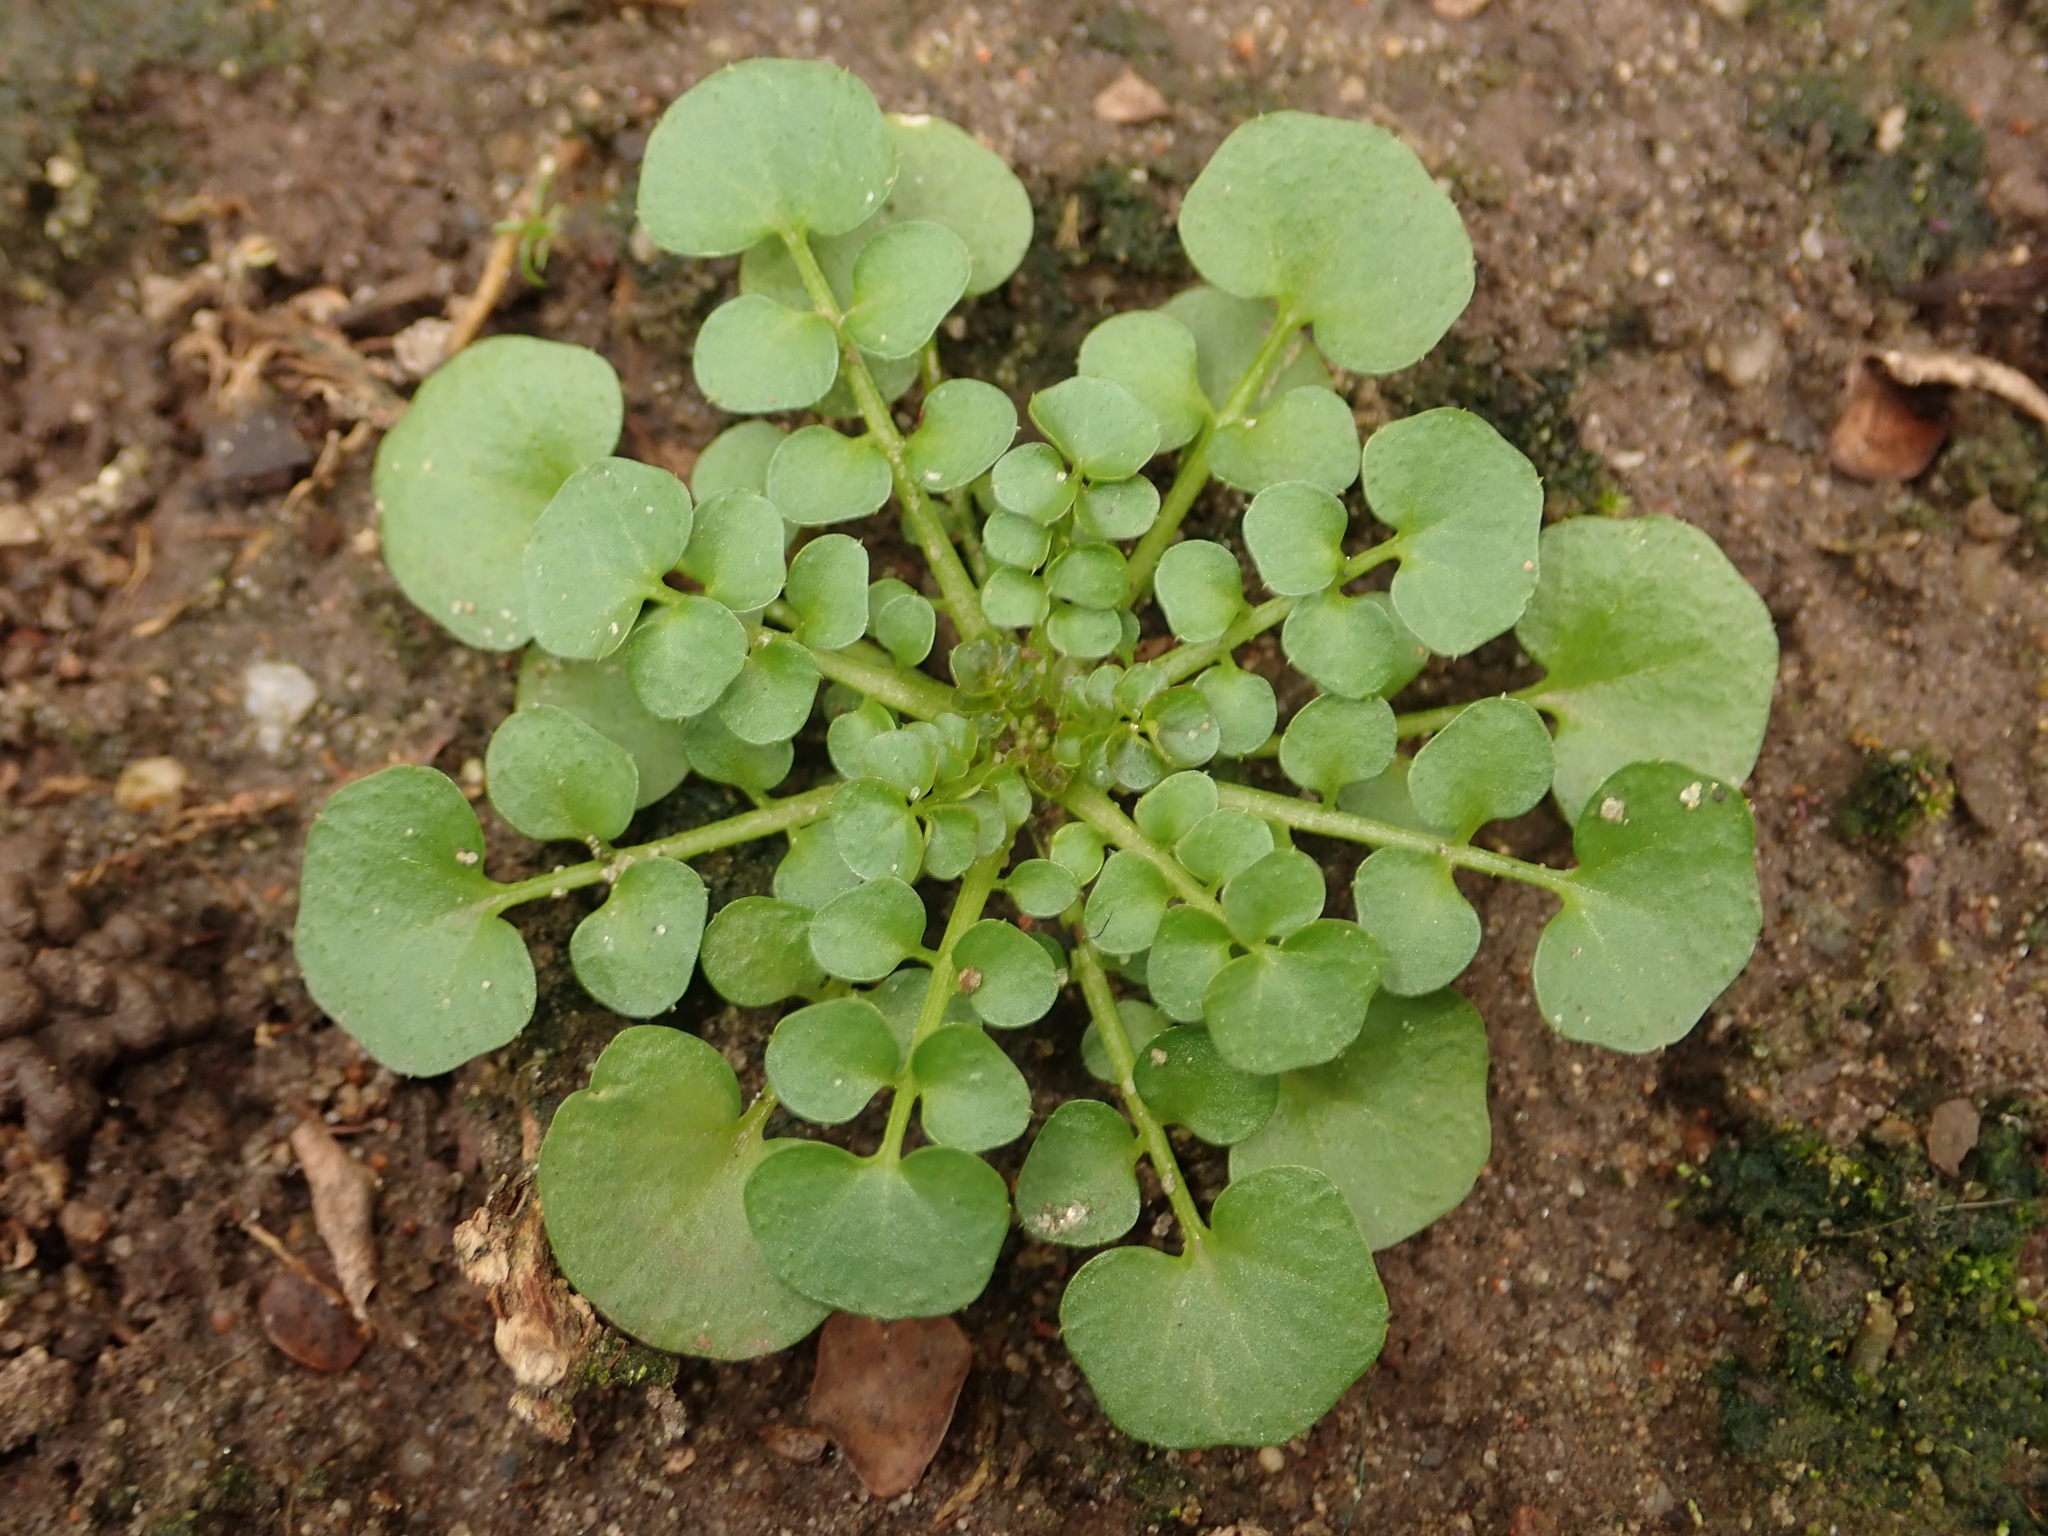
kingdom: Plantae
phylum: Tracheophyta
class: Magnoliopsida
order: Brassicales
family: Brassicaceae
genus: Cardamine
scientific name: Cardamine hirsuta
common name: Hairy bittercress
